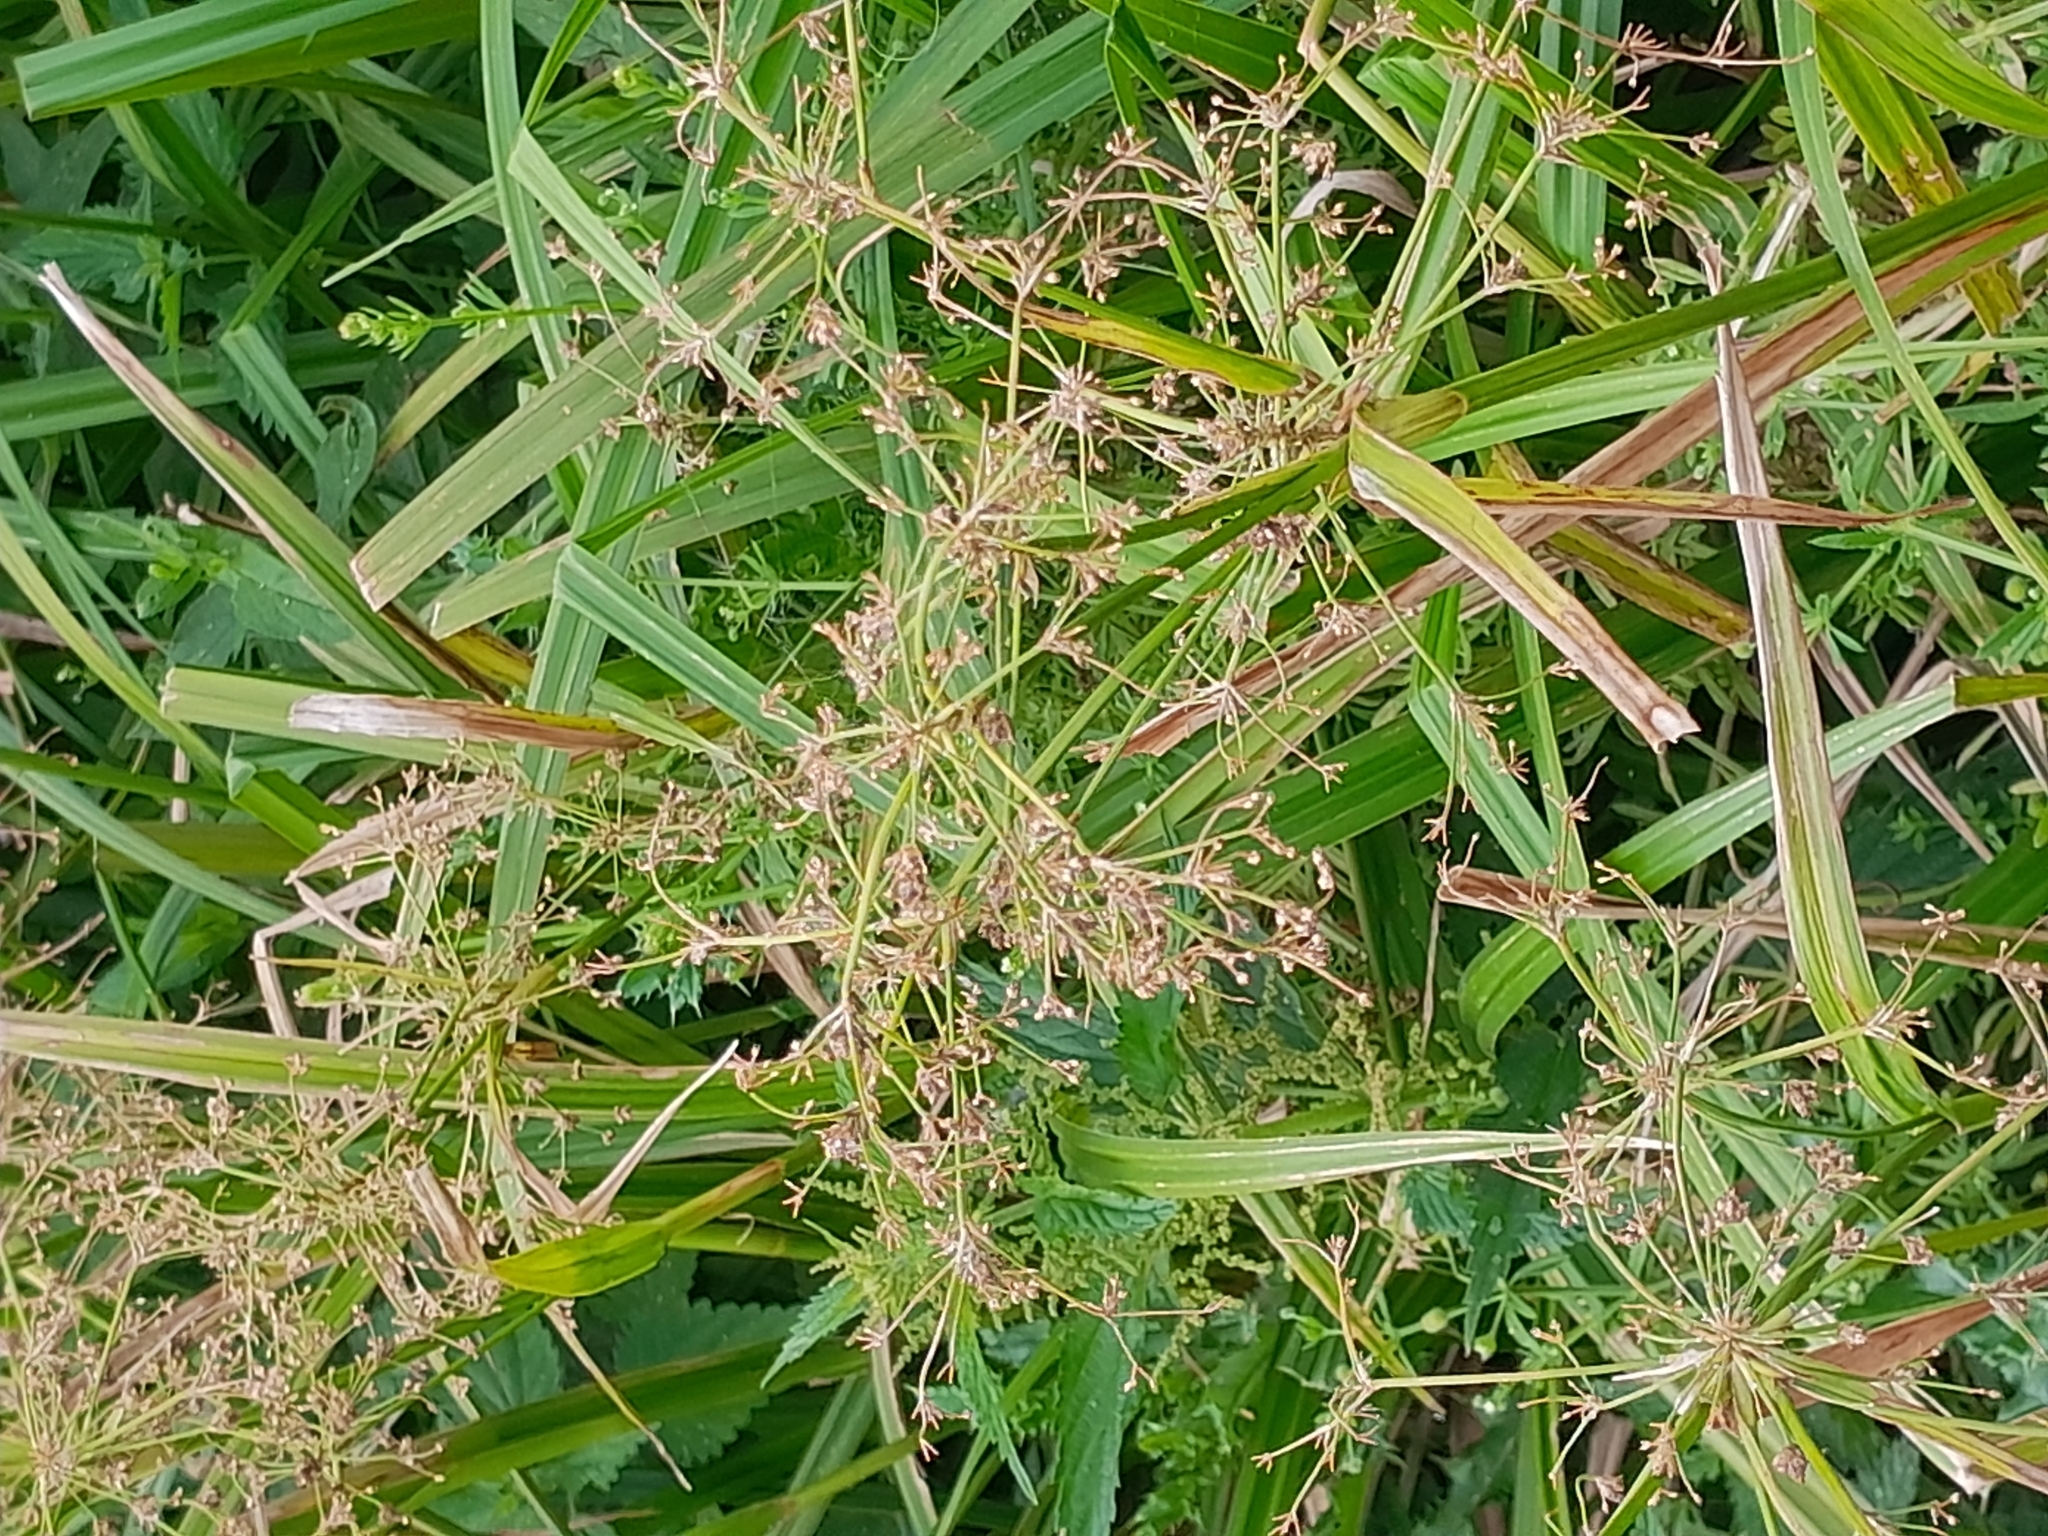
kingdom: Plantae
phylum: Tracheophyta
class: Liliopsida
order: Poales
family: Cyperaceae
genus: Scirpus
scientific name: Scirpus sylvaticus
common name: Wood club-rush
